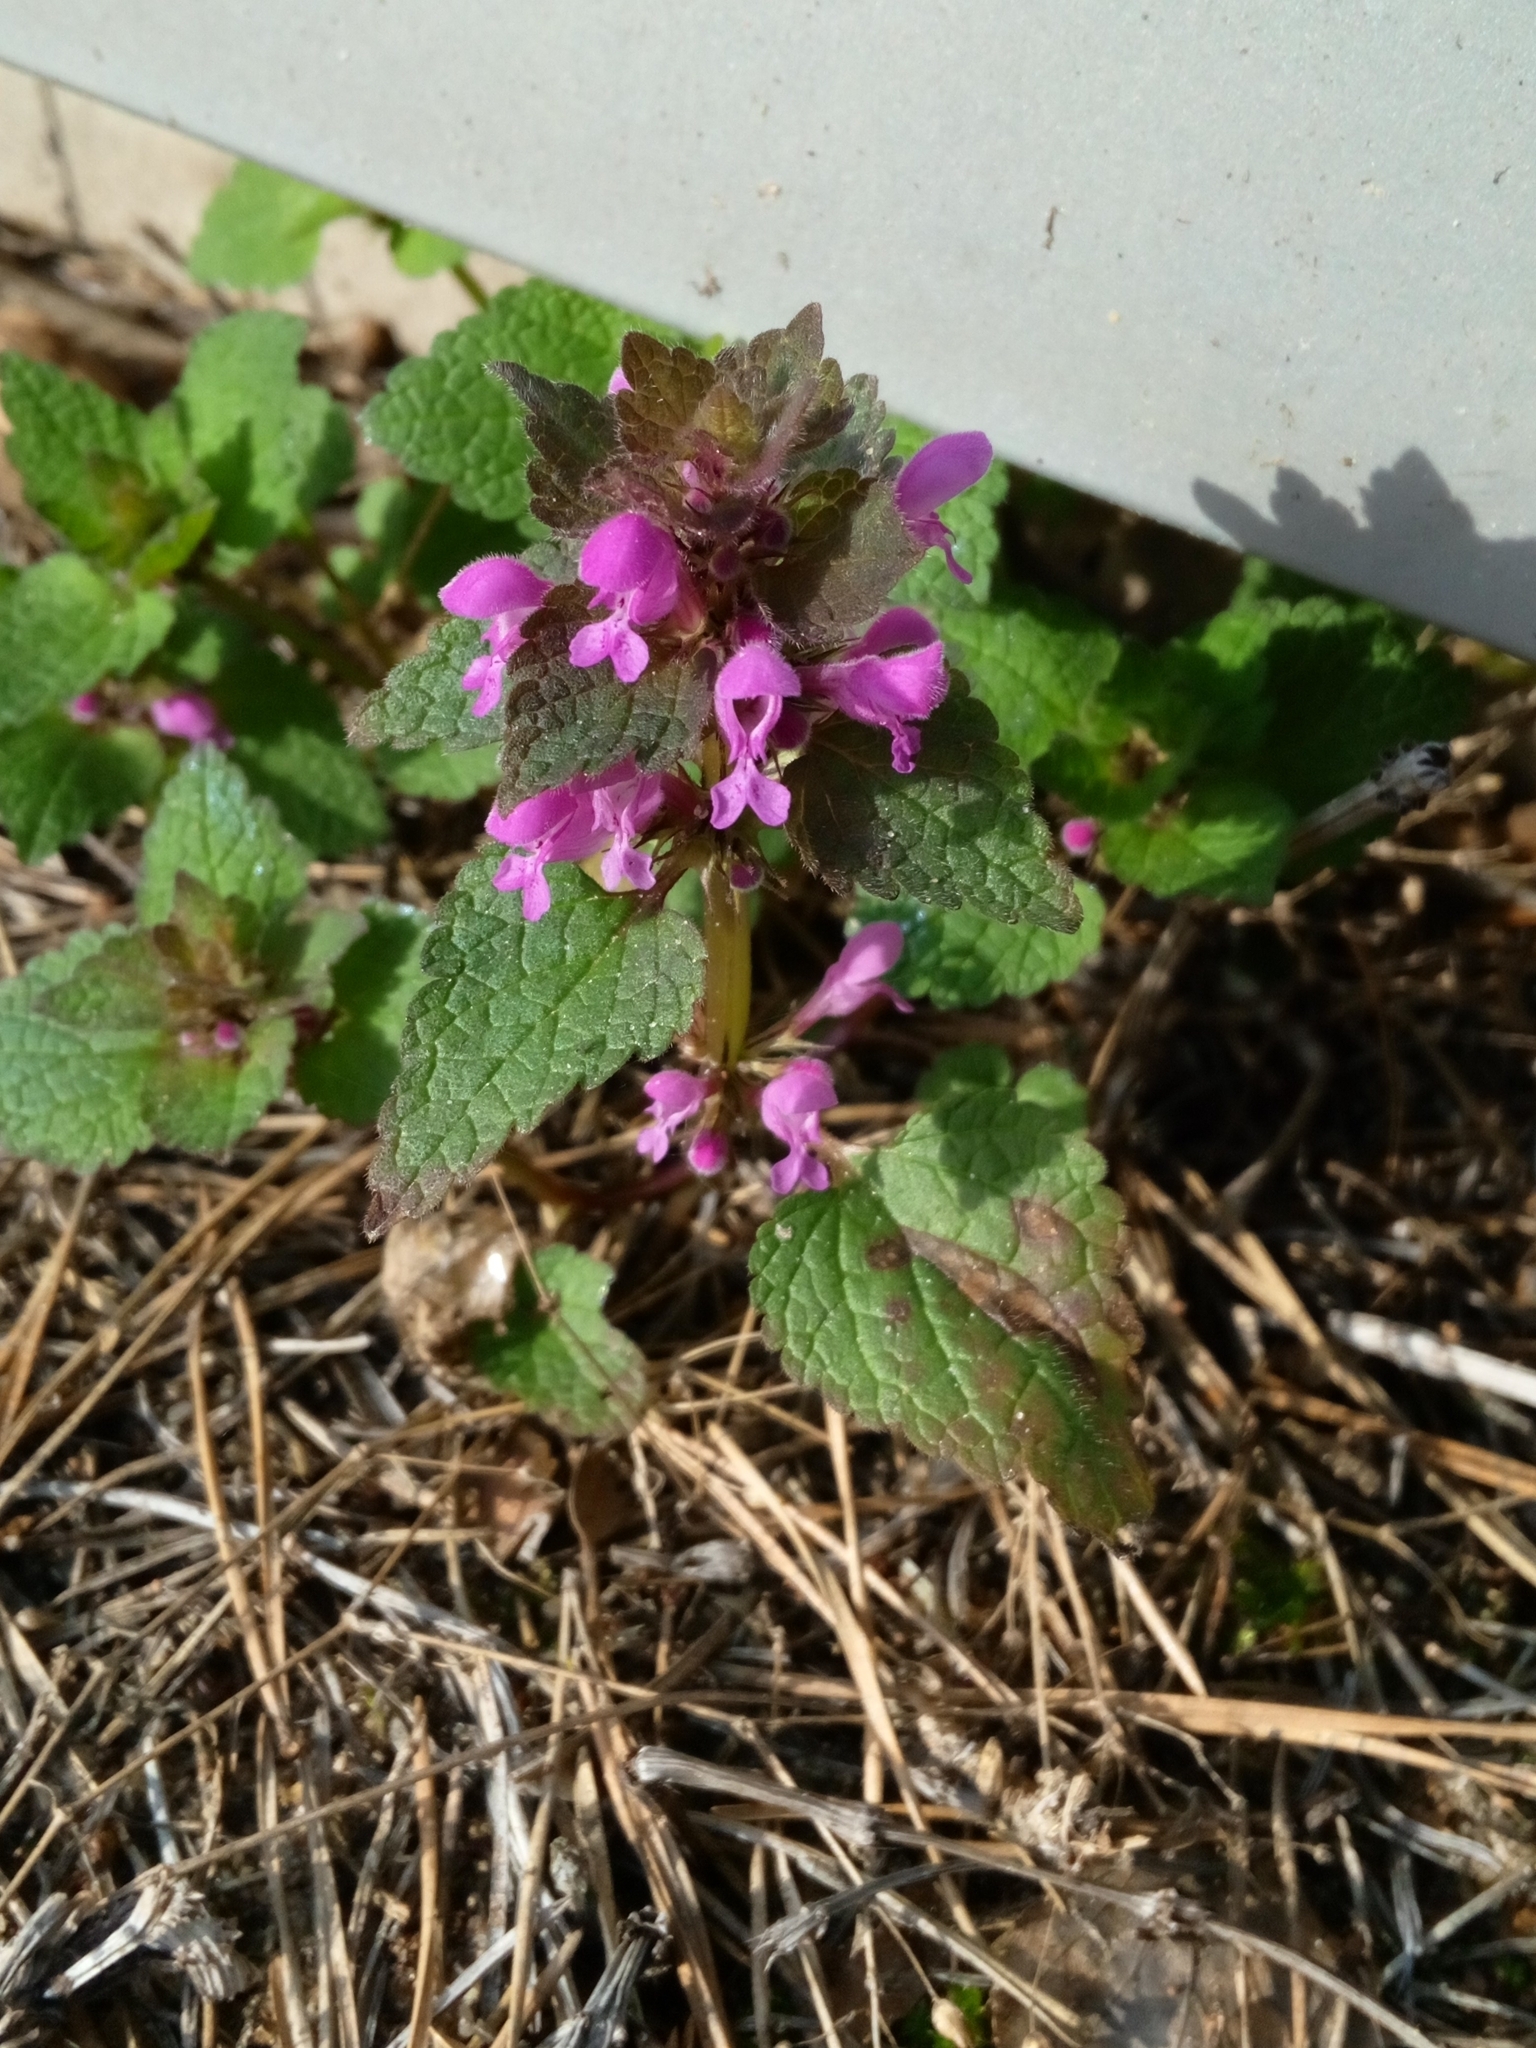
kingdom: Plantae
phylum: Tracheophyta
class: Magnoliopsida
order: Lamiales
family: Lamiaceae
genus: Lamium
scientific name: Lamium purpureum
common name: Red dead-nettle
